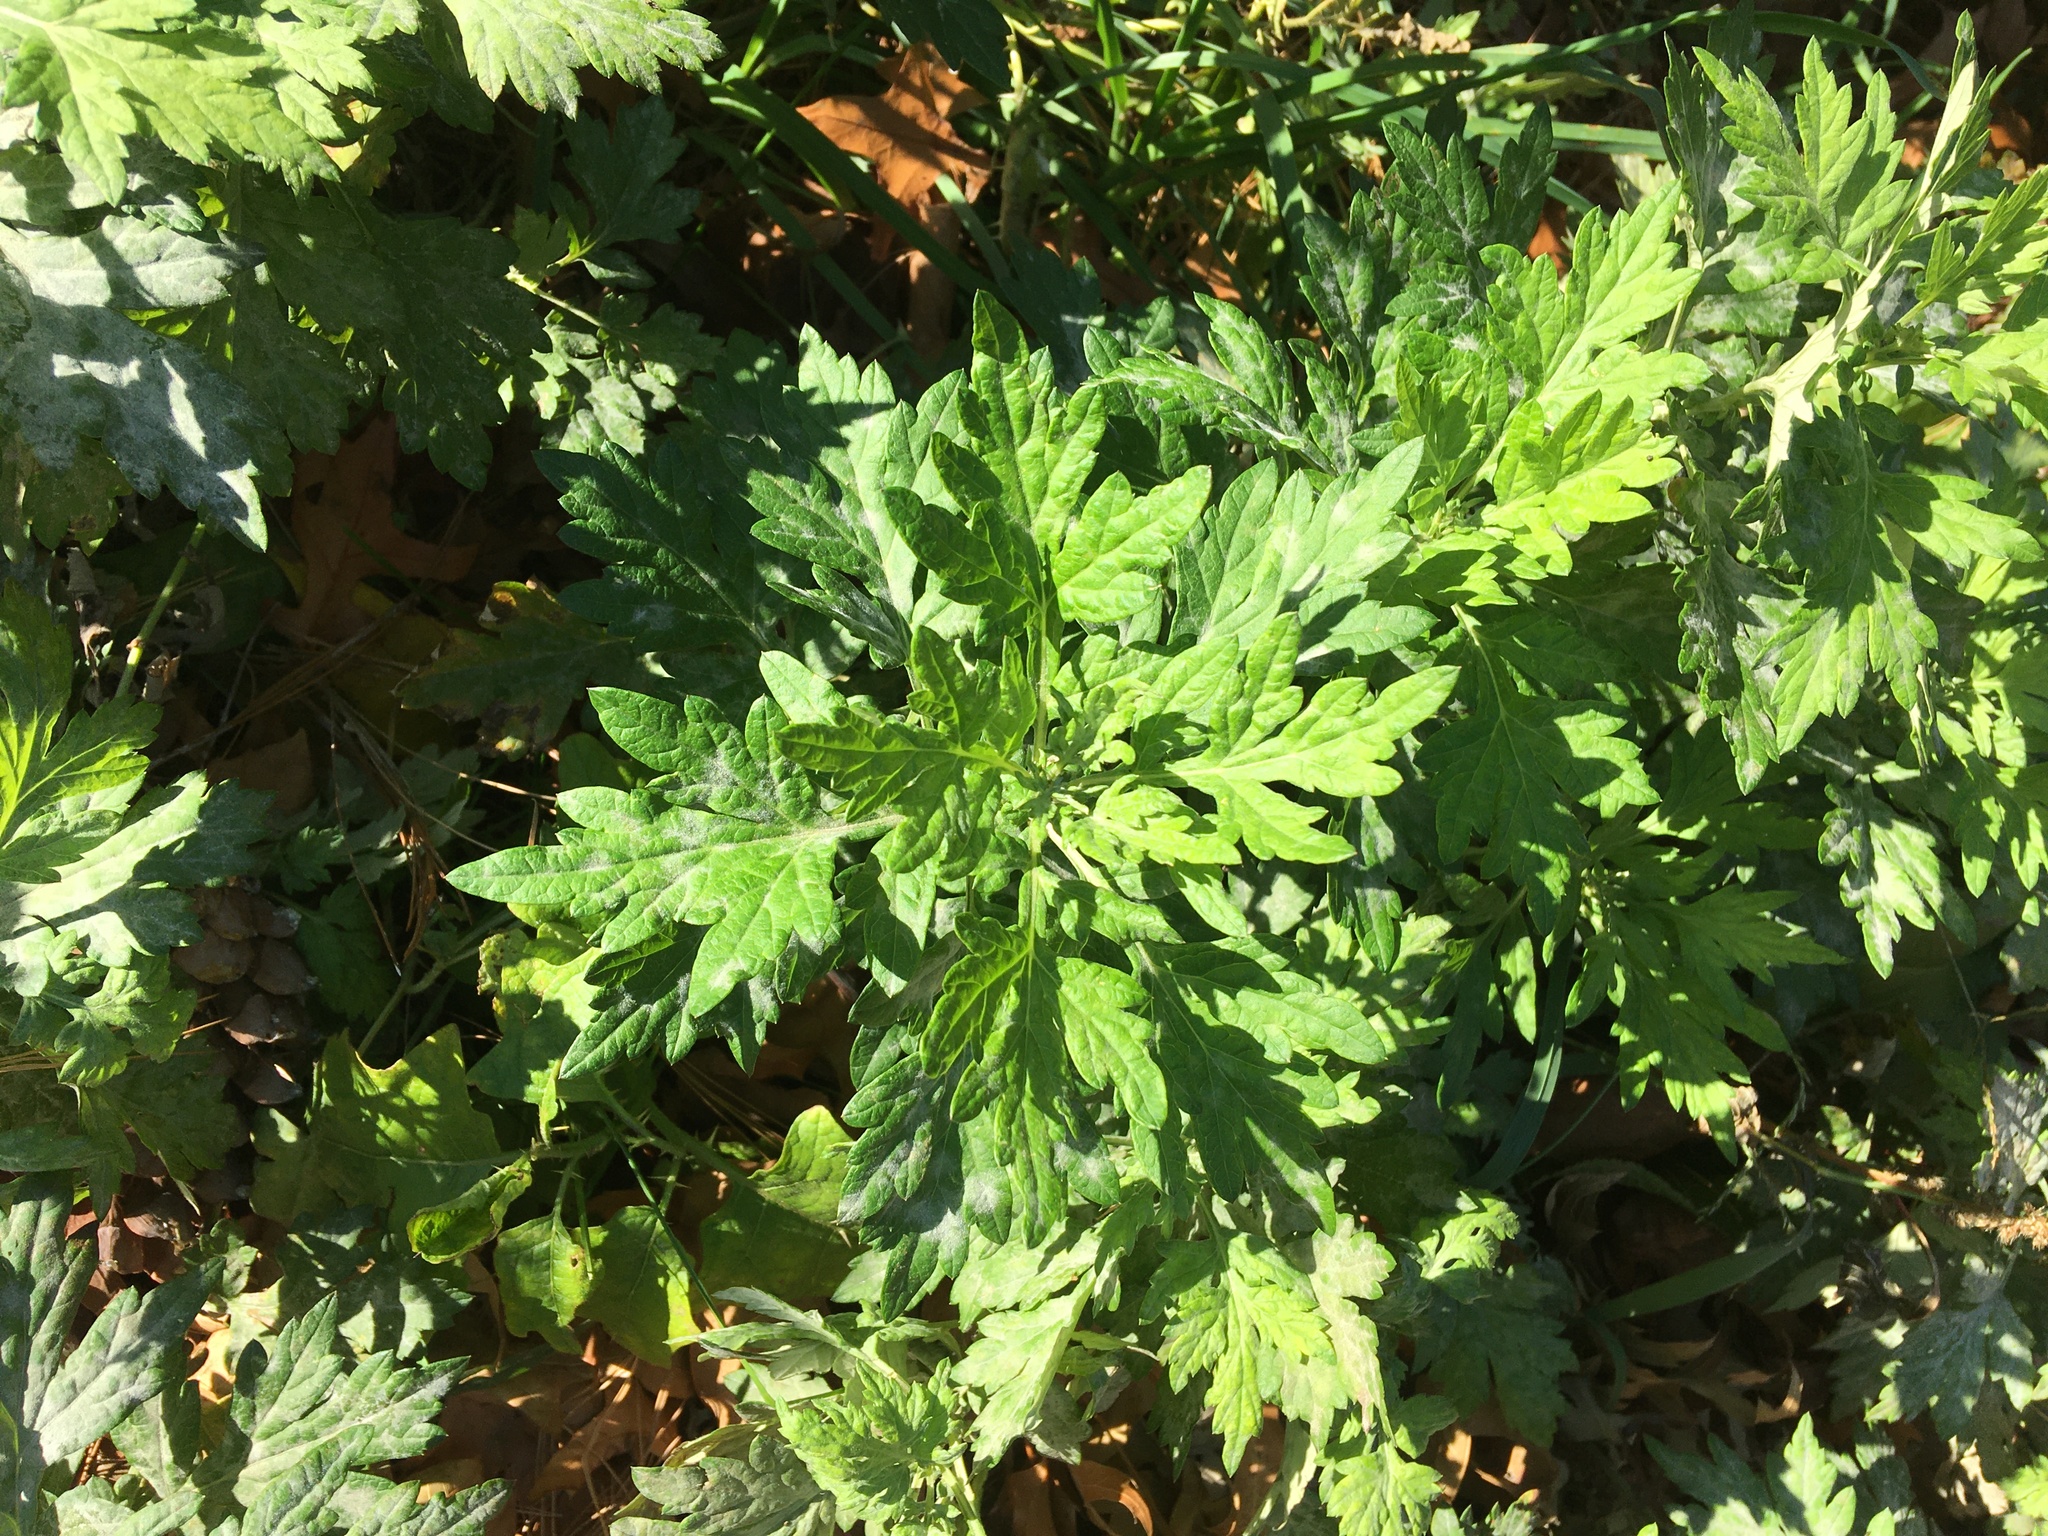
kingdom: Plantae
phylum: Tracheophyta
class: Magnoliopsida
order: Asterales
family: Asteraceae
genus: Artemisia
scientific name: Artemisia vulgaris
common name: Mugwort
